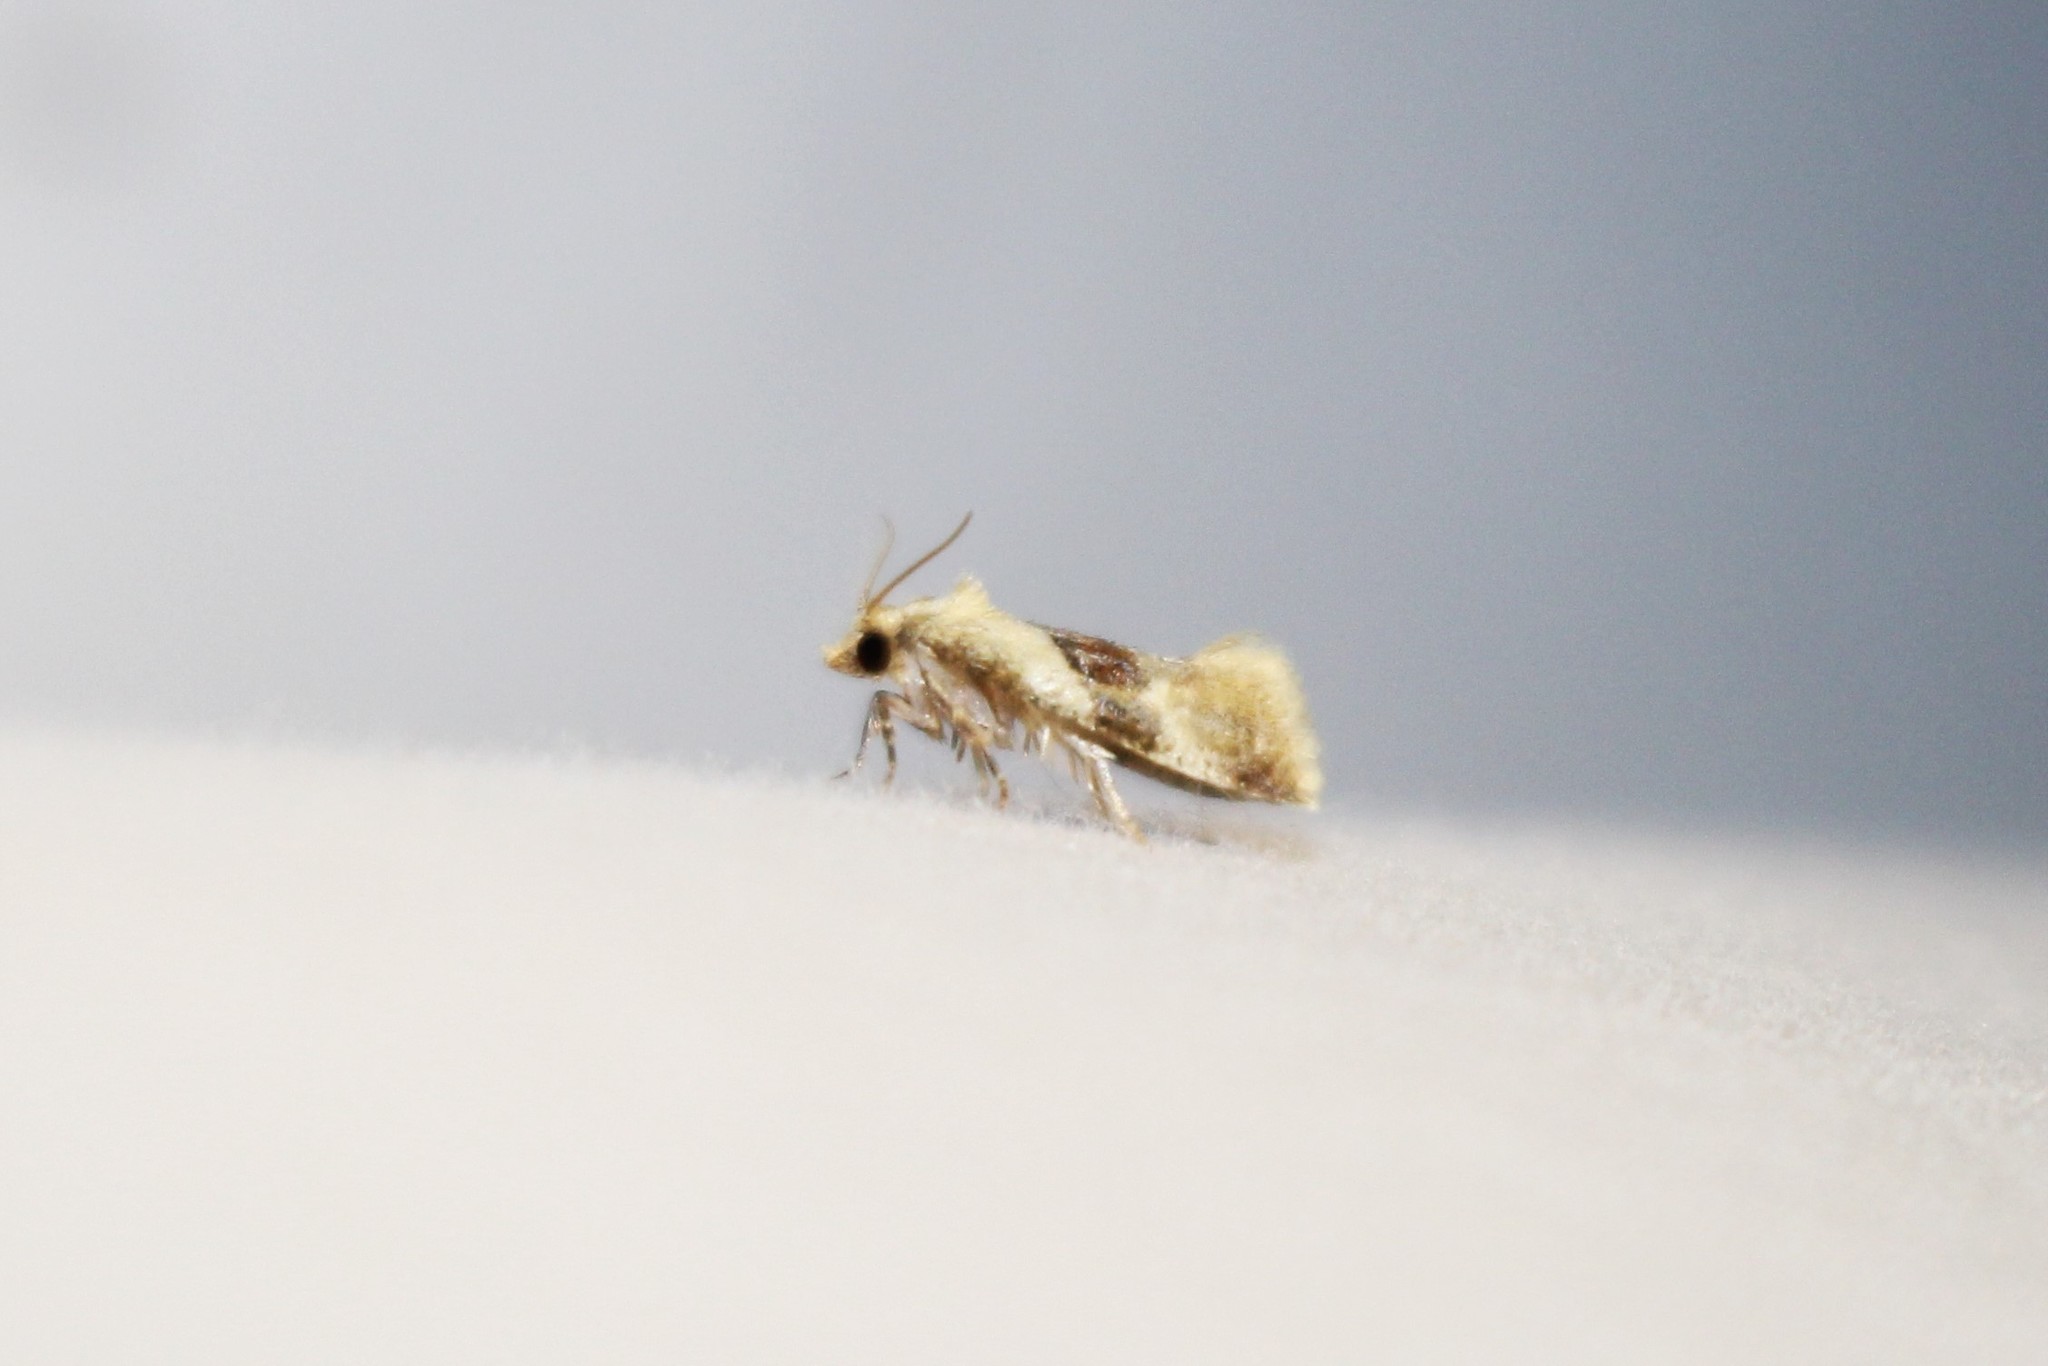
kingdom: Animalia
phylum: Arthropoda
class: Insecta
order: Lepidoptera
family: Tortricidae
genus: Phalonidia
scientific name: Phalonidia lepidana
